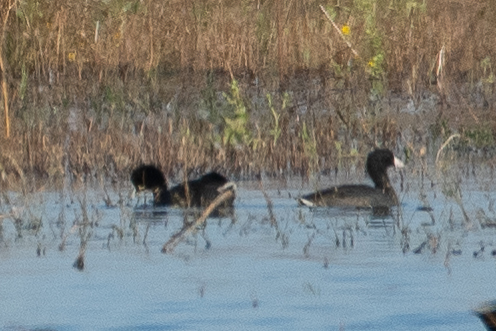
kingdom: Animalia
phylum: Chordata
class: Aves
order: Gruiformes
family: Rallidae
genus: Fulica
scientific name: Fulica americana
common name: American coot
